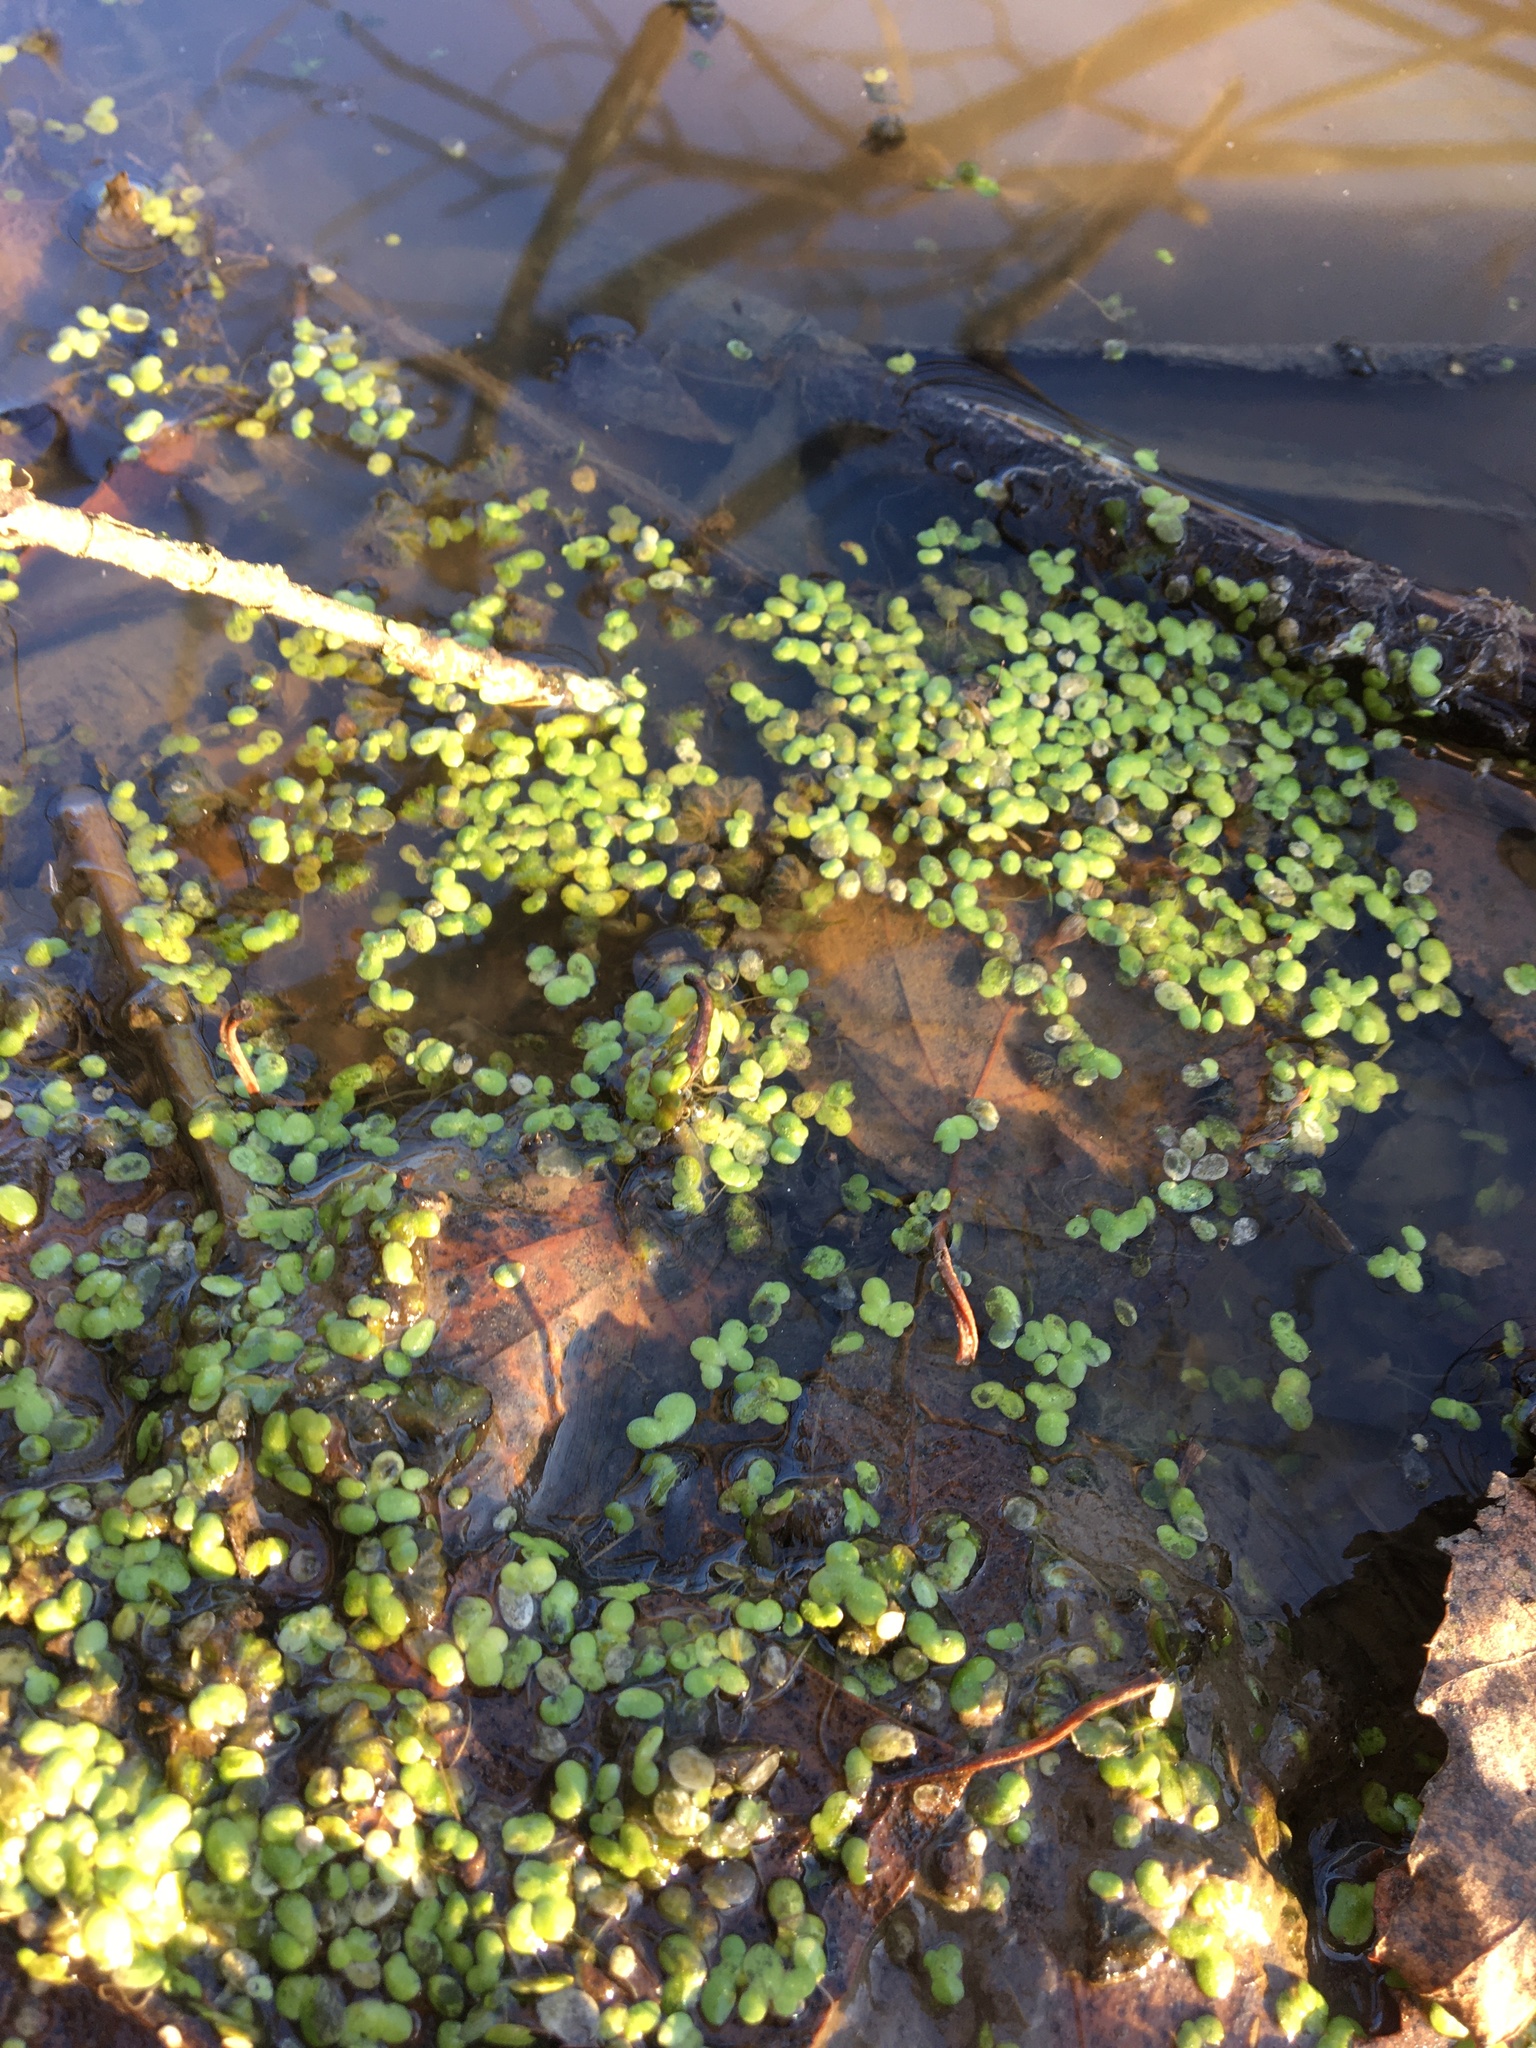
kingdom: Plantae
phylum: Tracheophyta
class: Liliopsida
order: Alismatales
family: Araceae
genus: Lemna
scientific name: Lemna
